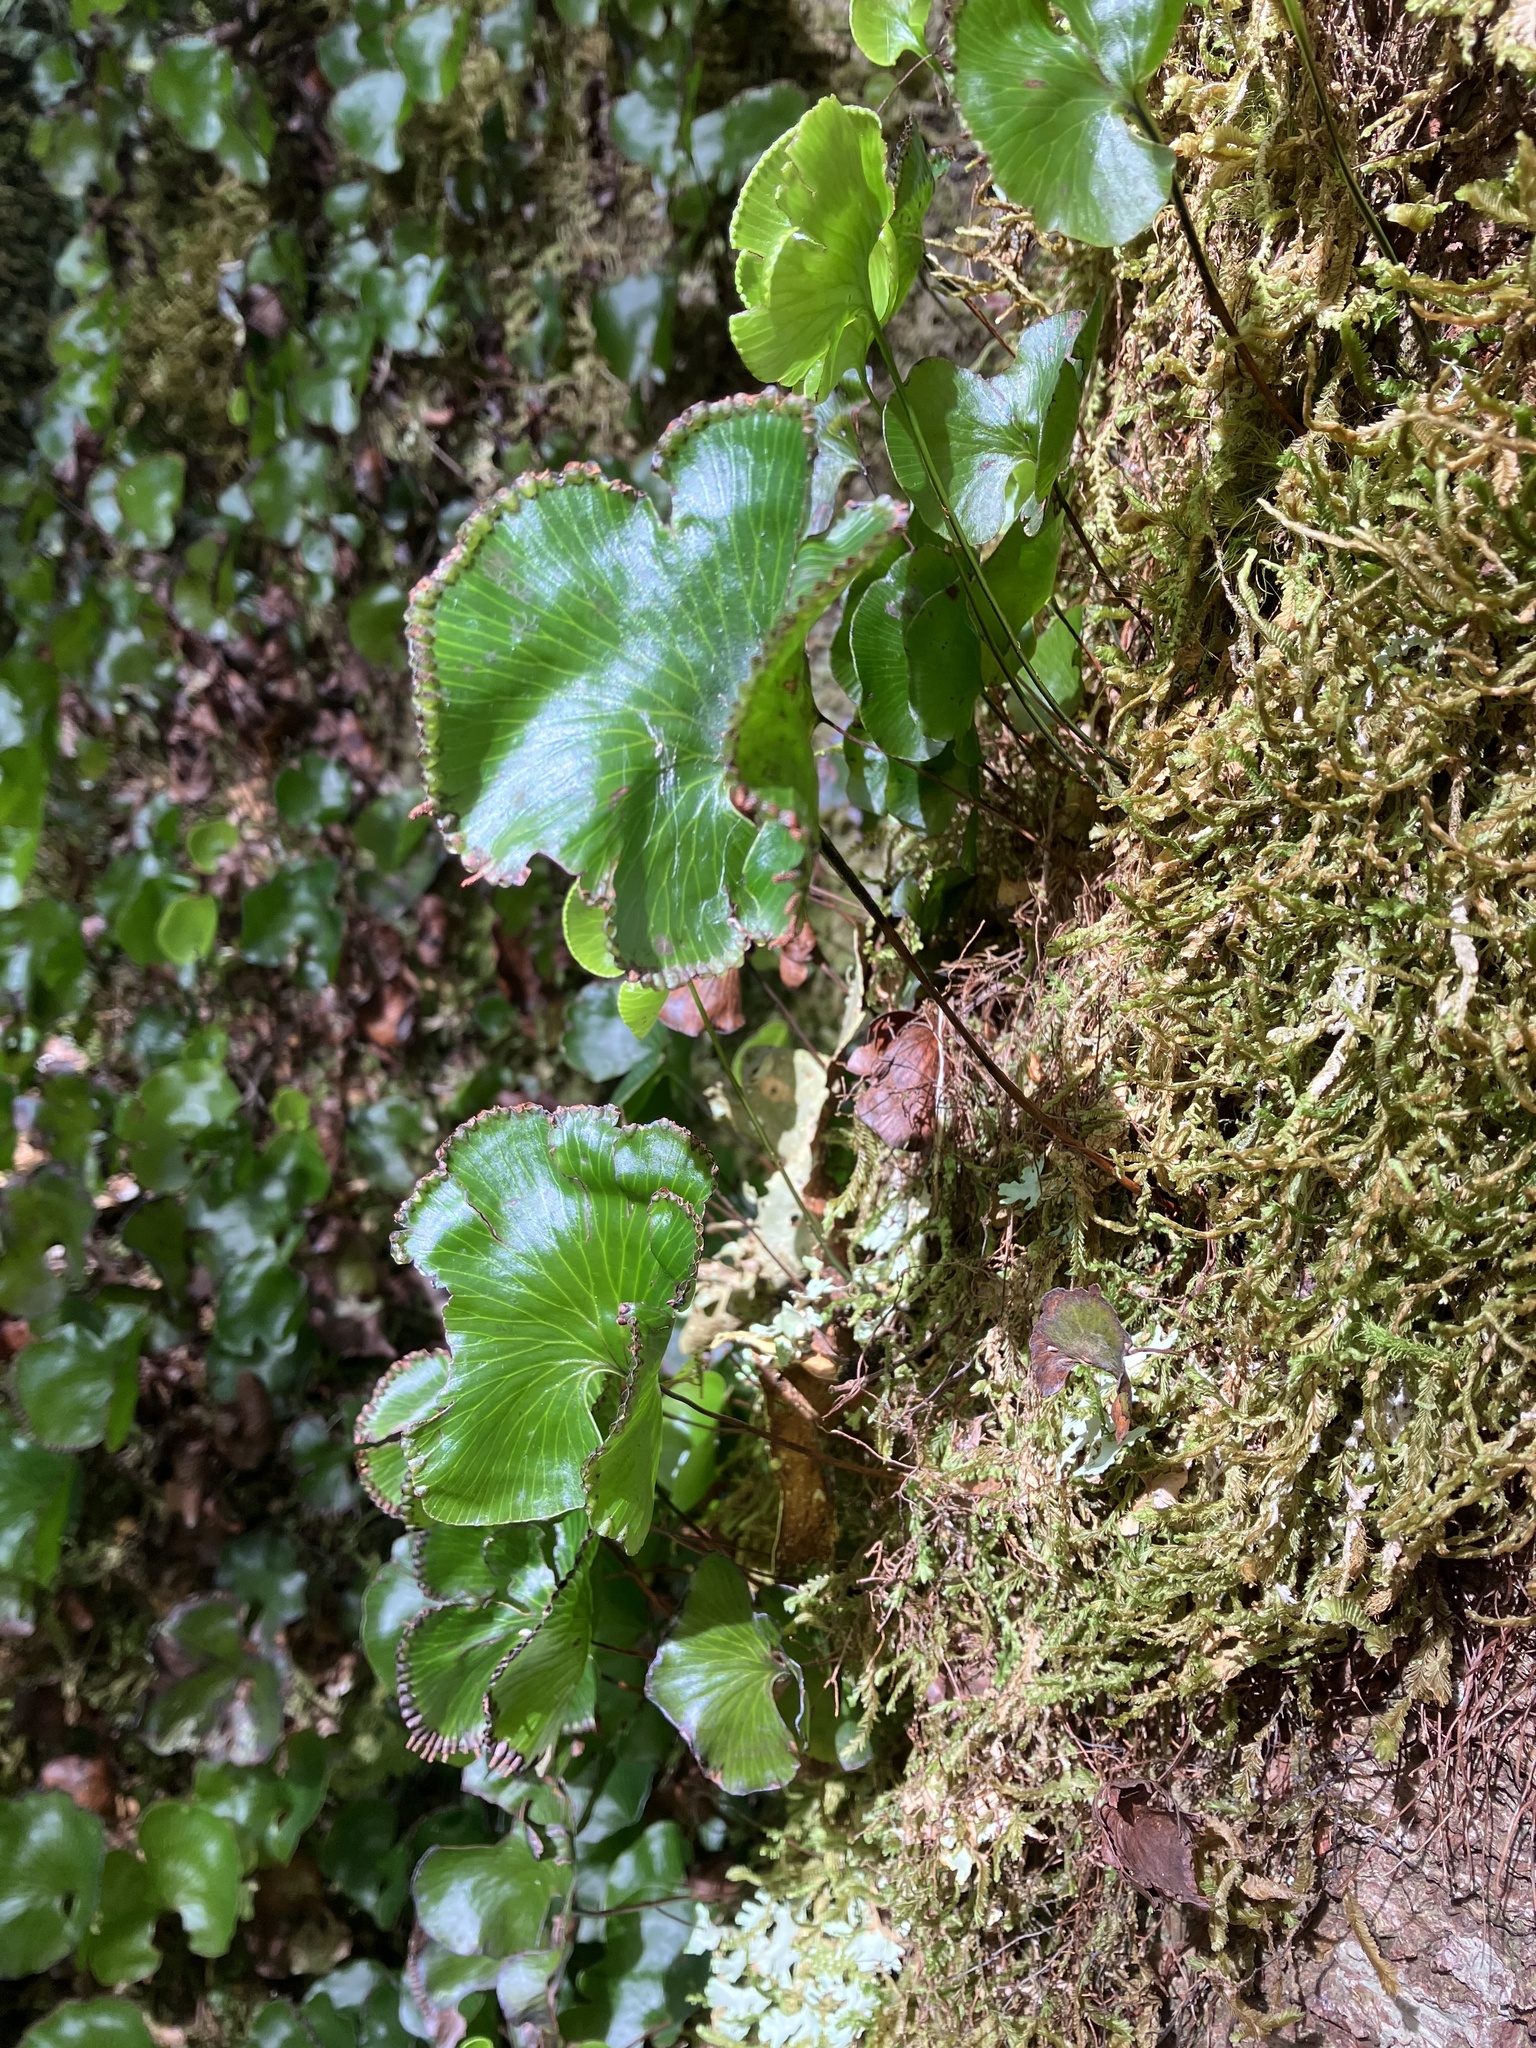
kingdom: Plantae
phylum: Tracheophyta
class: Polypodiopsida
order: Hymenophyllales
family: Hymenophyllaceae
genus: Hymenophyllum
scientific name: Hymenophyllum nephrophyllum
